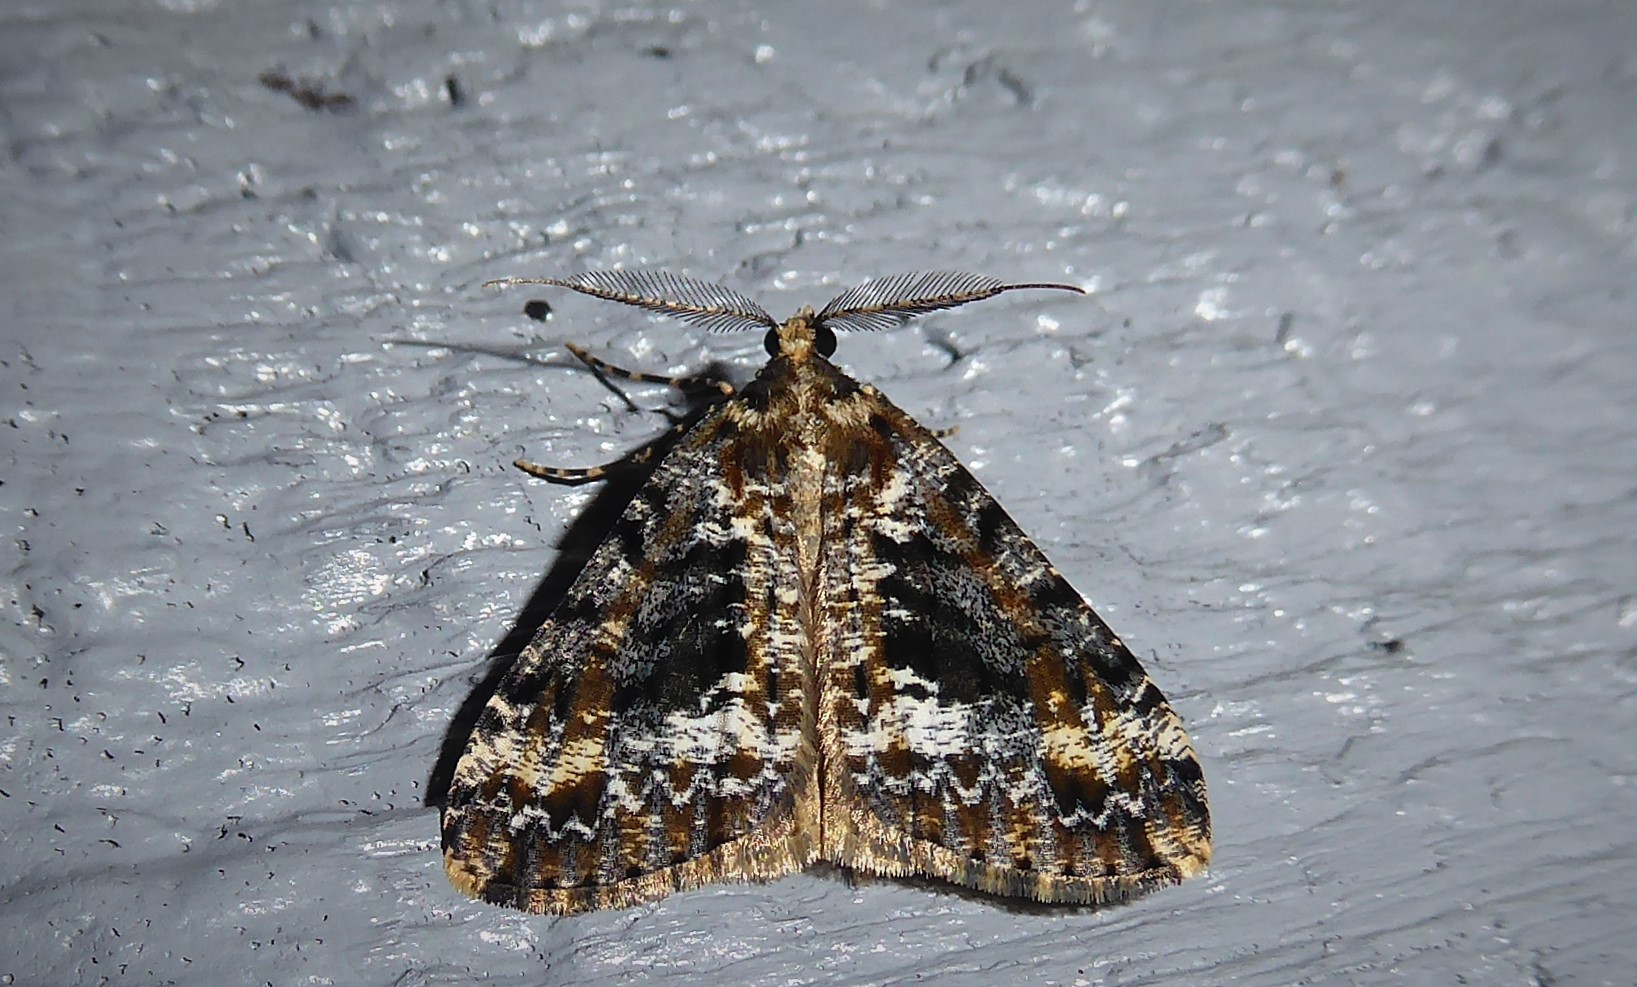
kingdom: Animalia
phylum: Arthropoda
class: Insecta
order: Lepidoptera
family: Geometridae
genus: Pseudocoremia
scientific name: Pseudocoremia leucelaea
